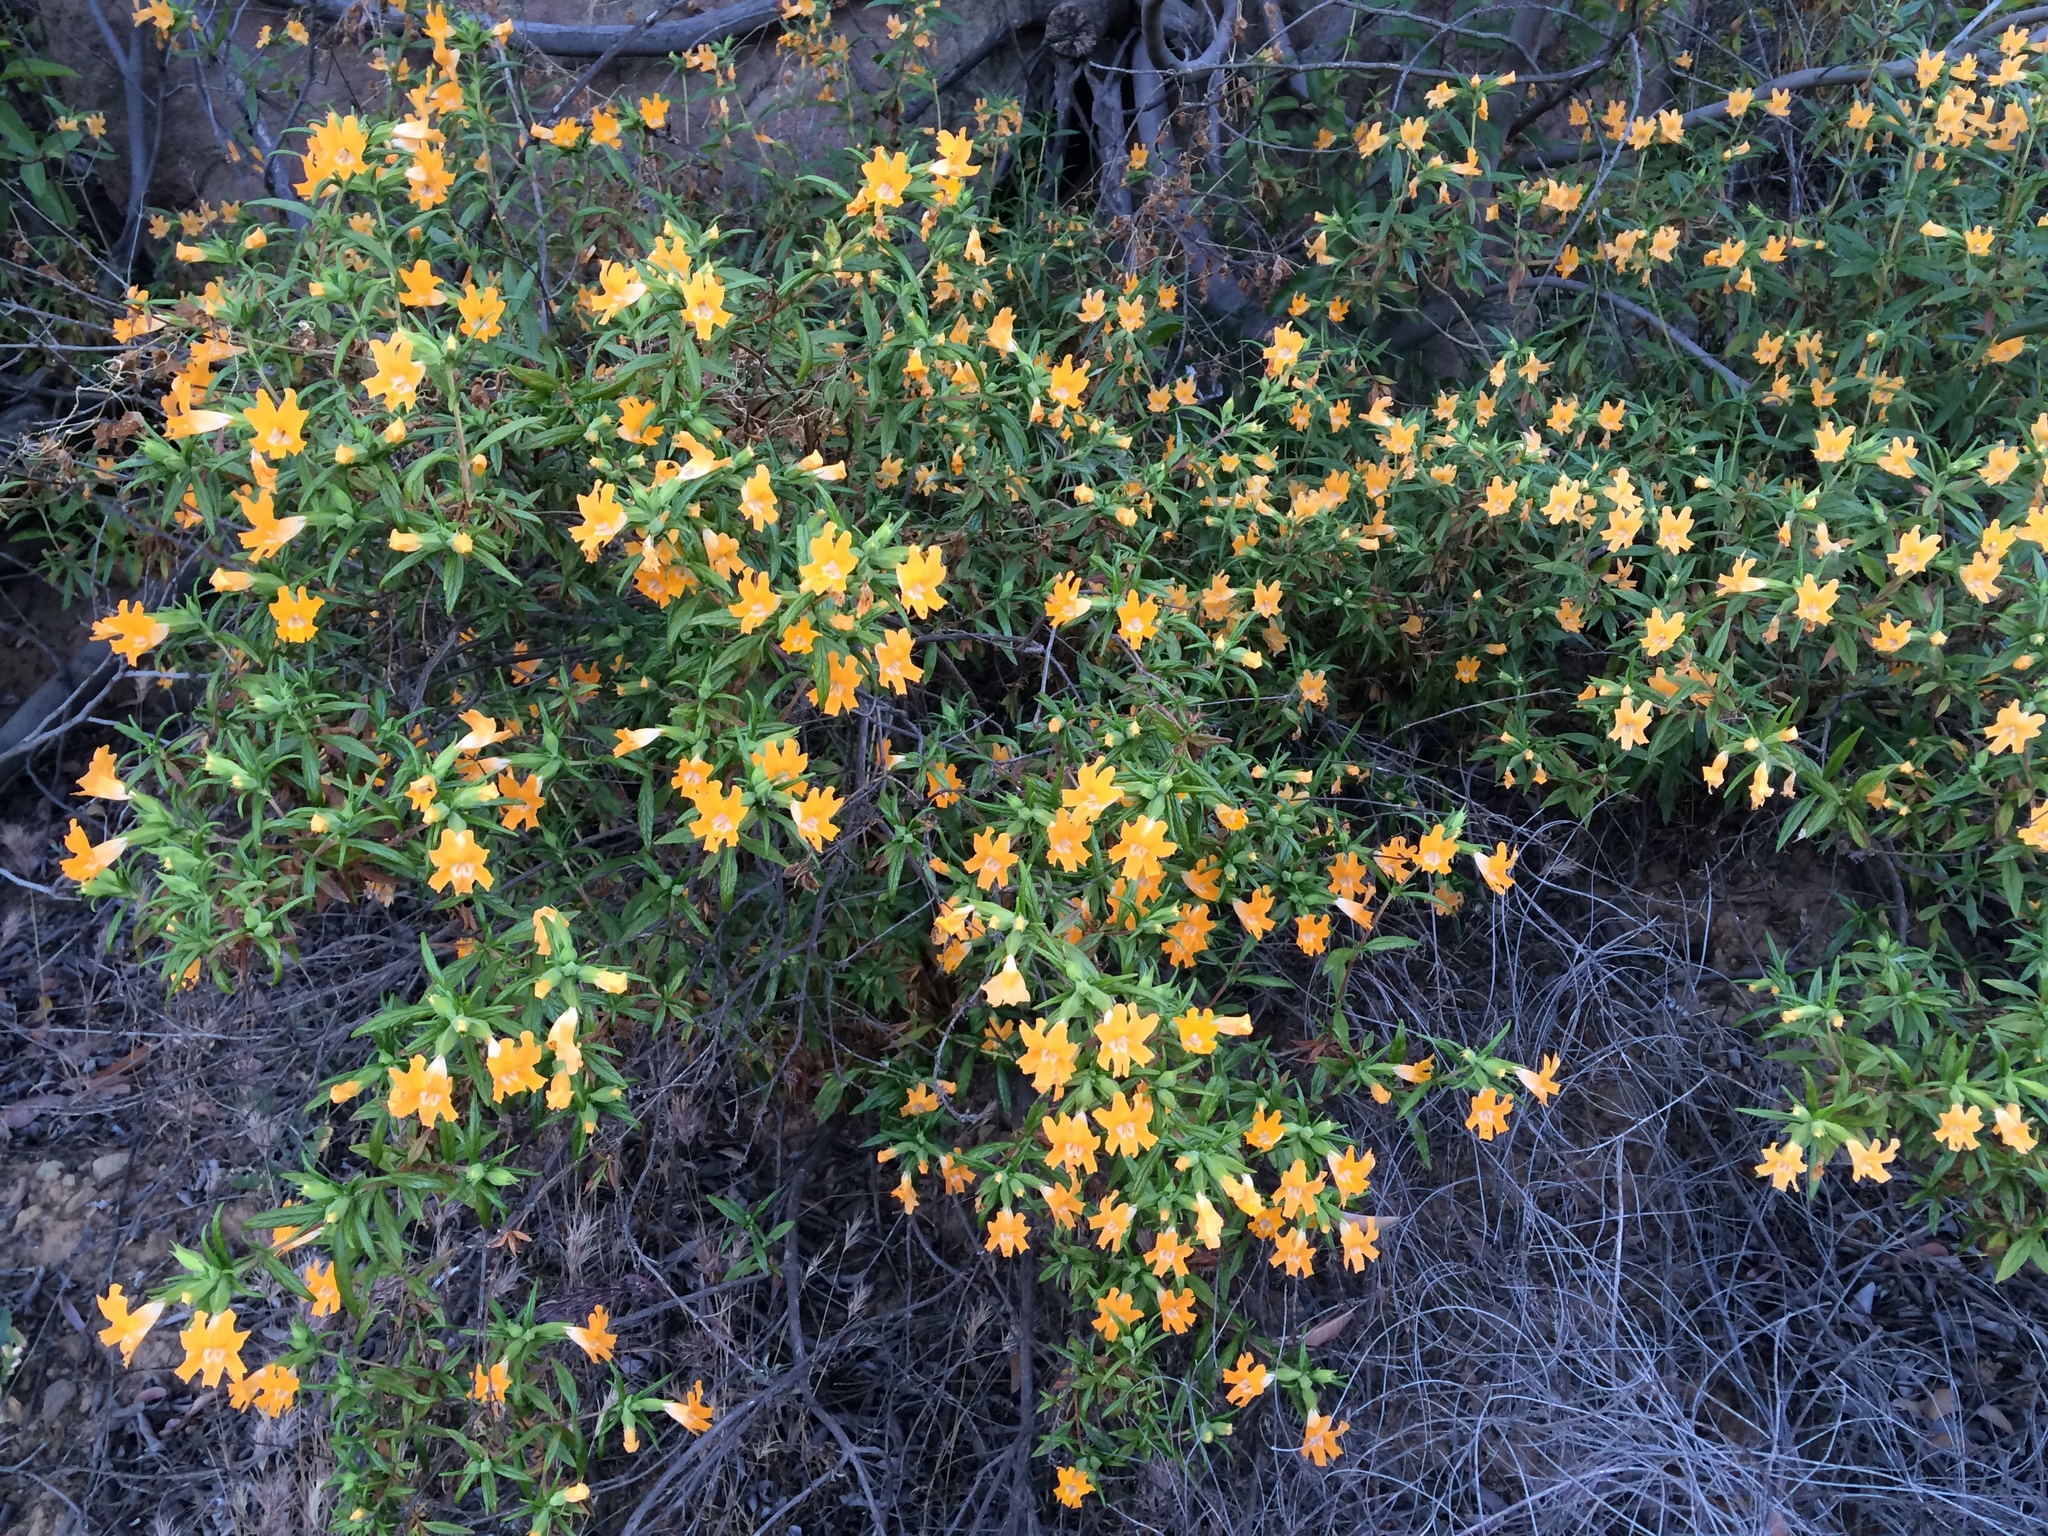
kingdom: Plantae
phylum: Tracheophyta
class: Magnoliopsida
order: Lamiales
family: Phrymaceae
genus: Diplacus
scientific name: Diplacus longiflorus
